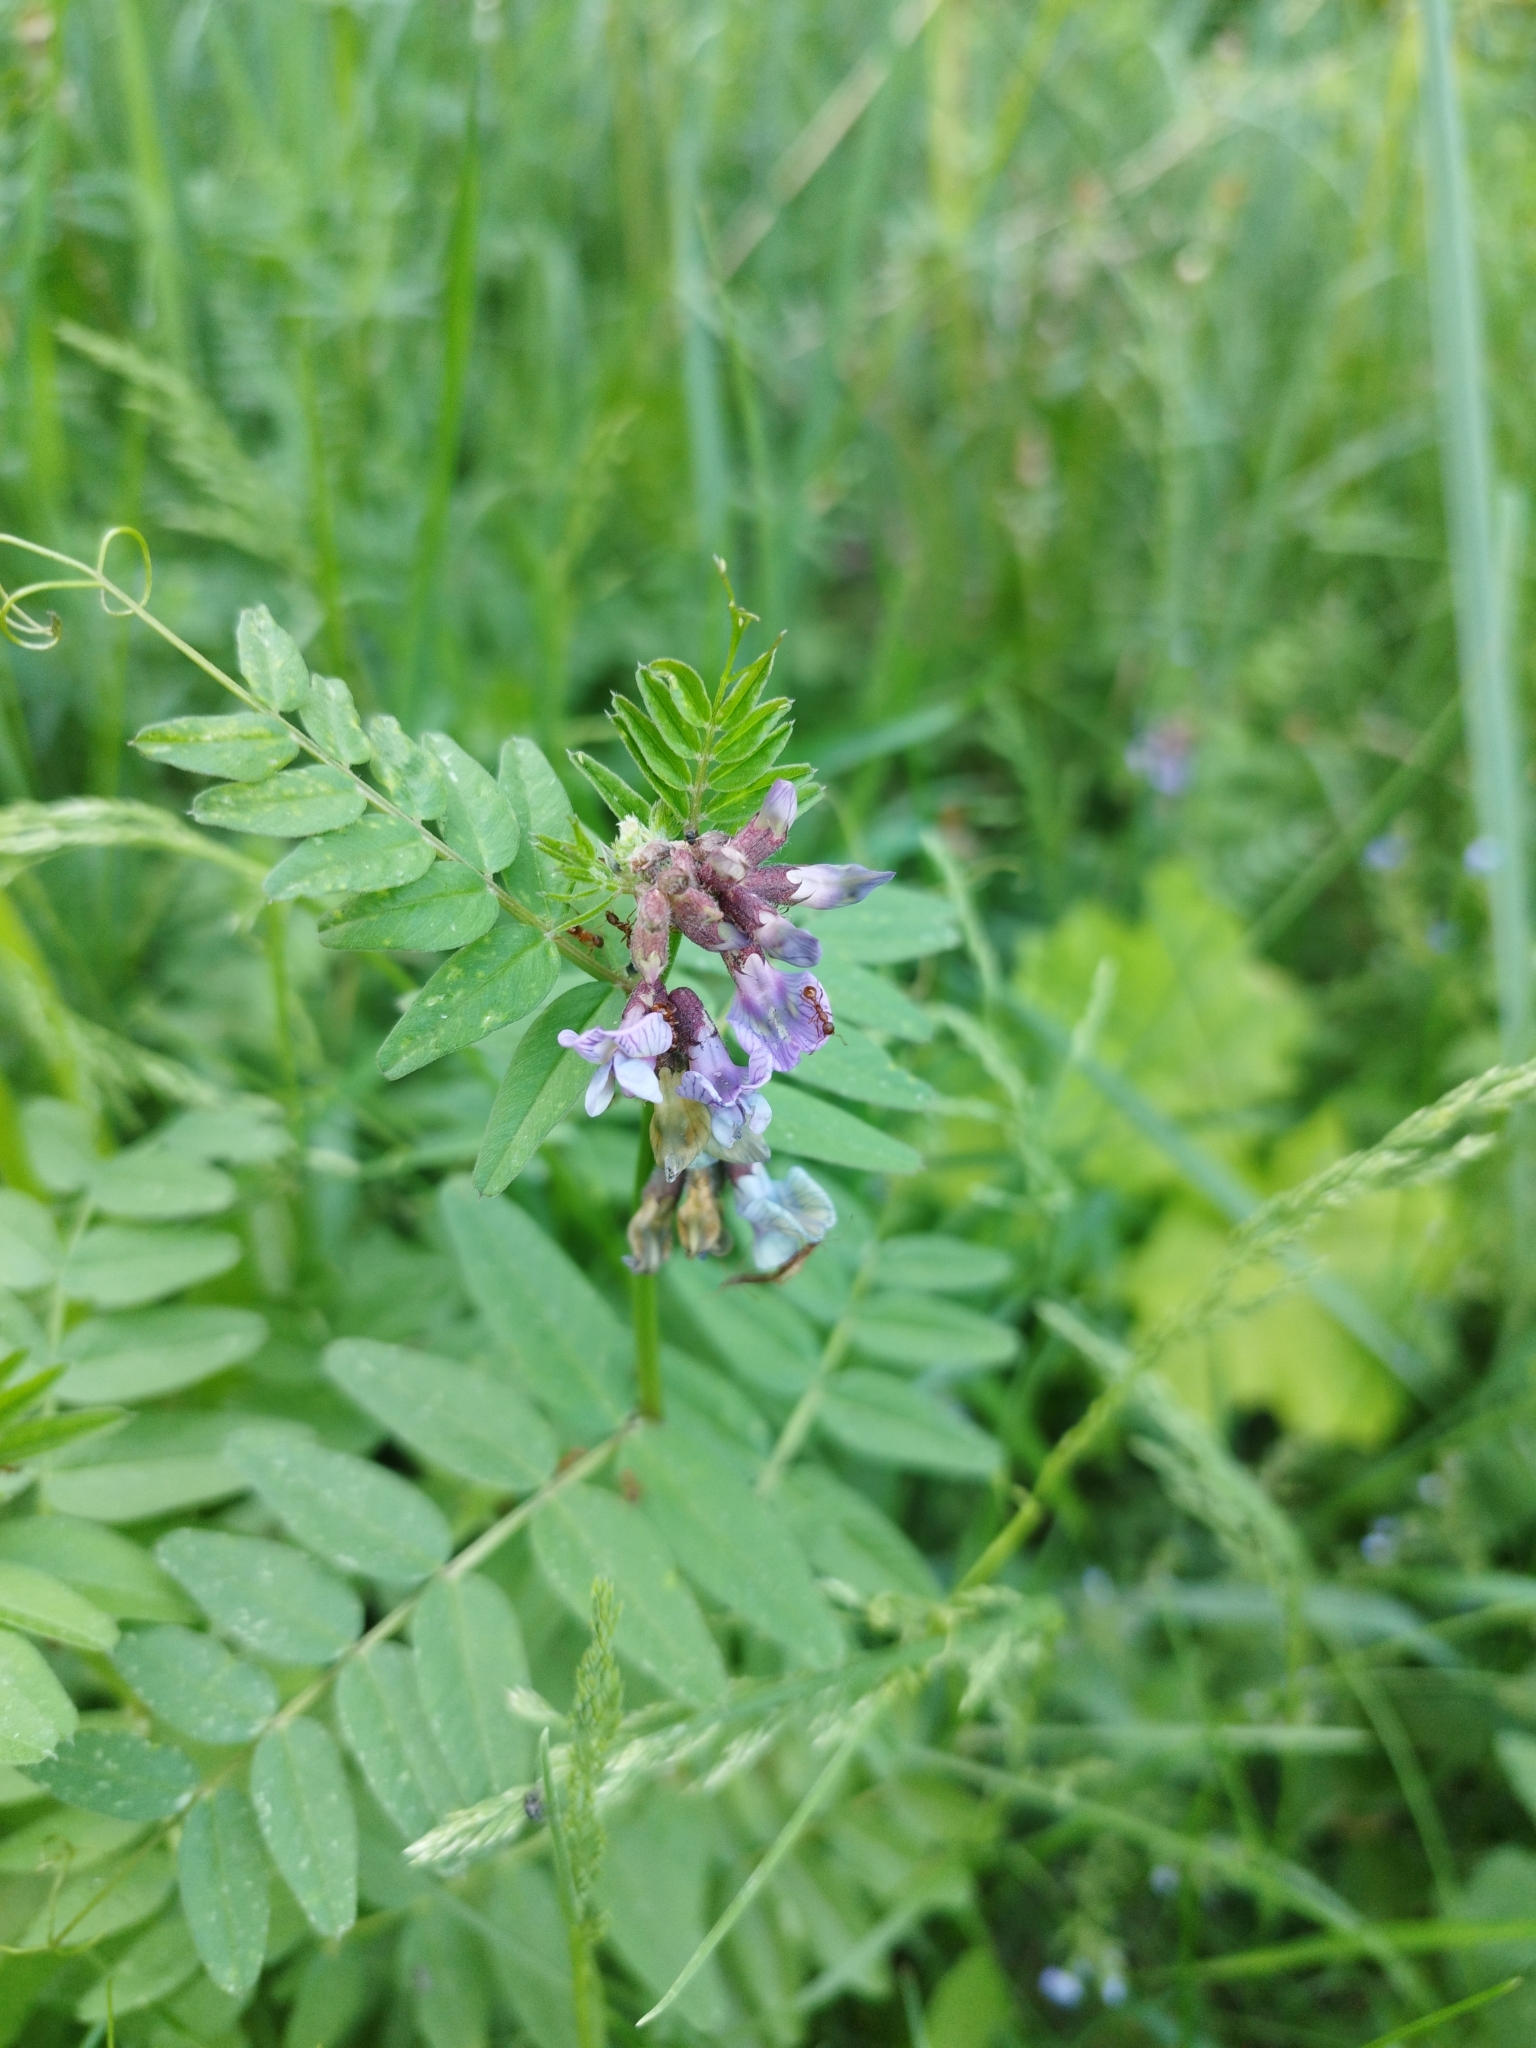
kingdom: Plantae
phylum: Tracheophyta
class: Magnoliopsida
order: Fabales
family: Fabaceae
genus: Vicia
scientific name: Vicia sepium
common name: Bush vetch
